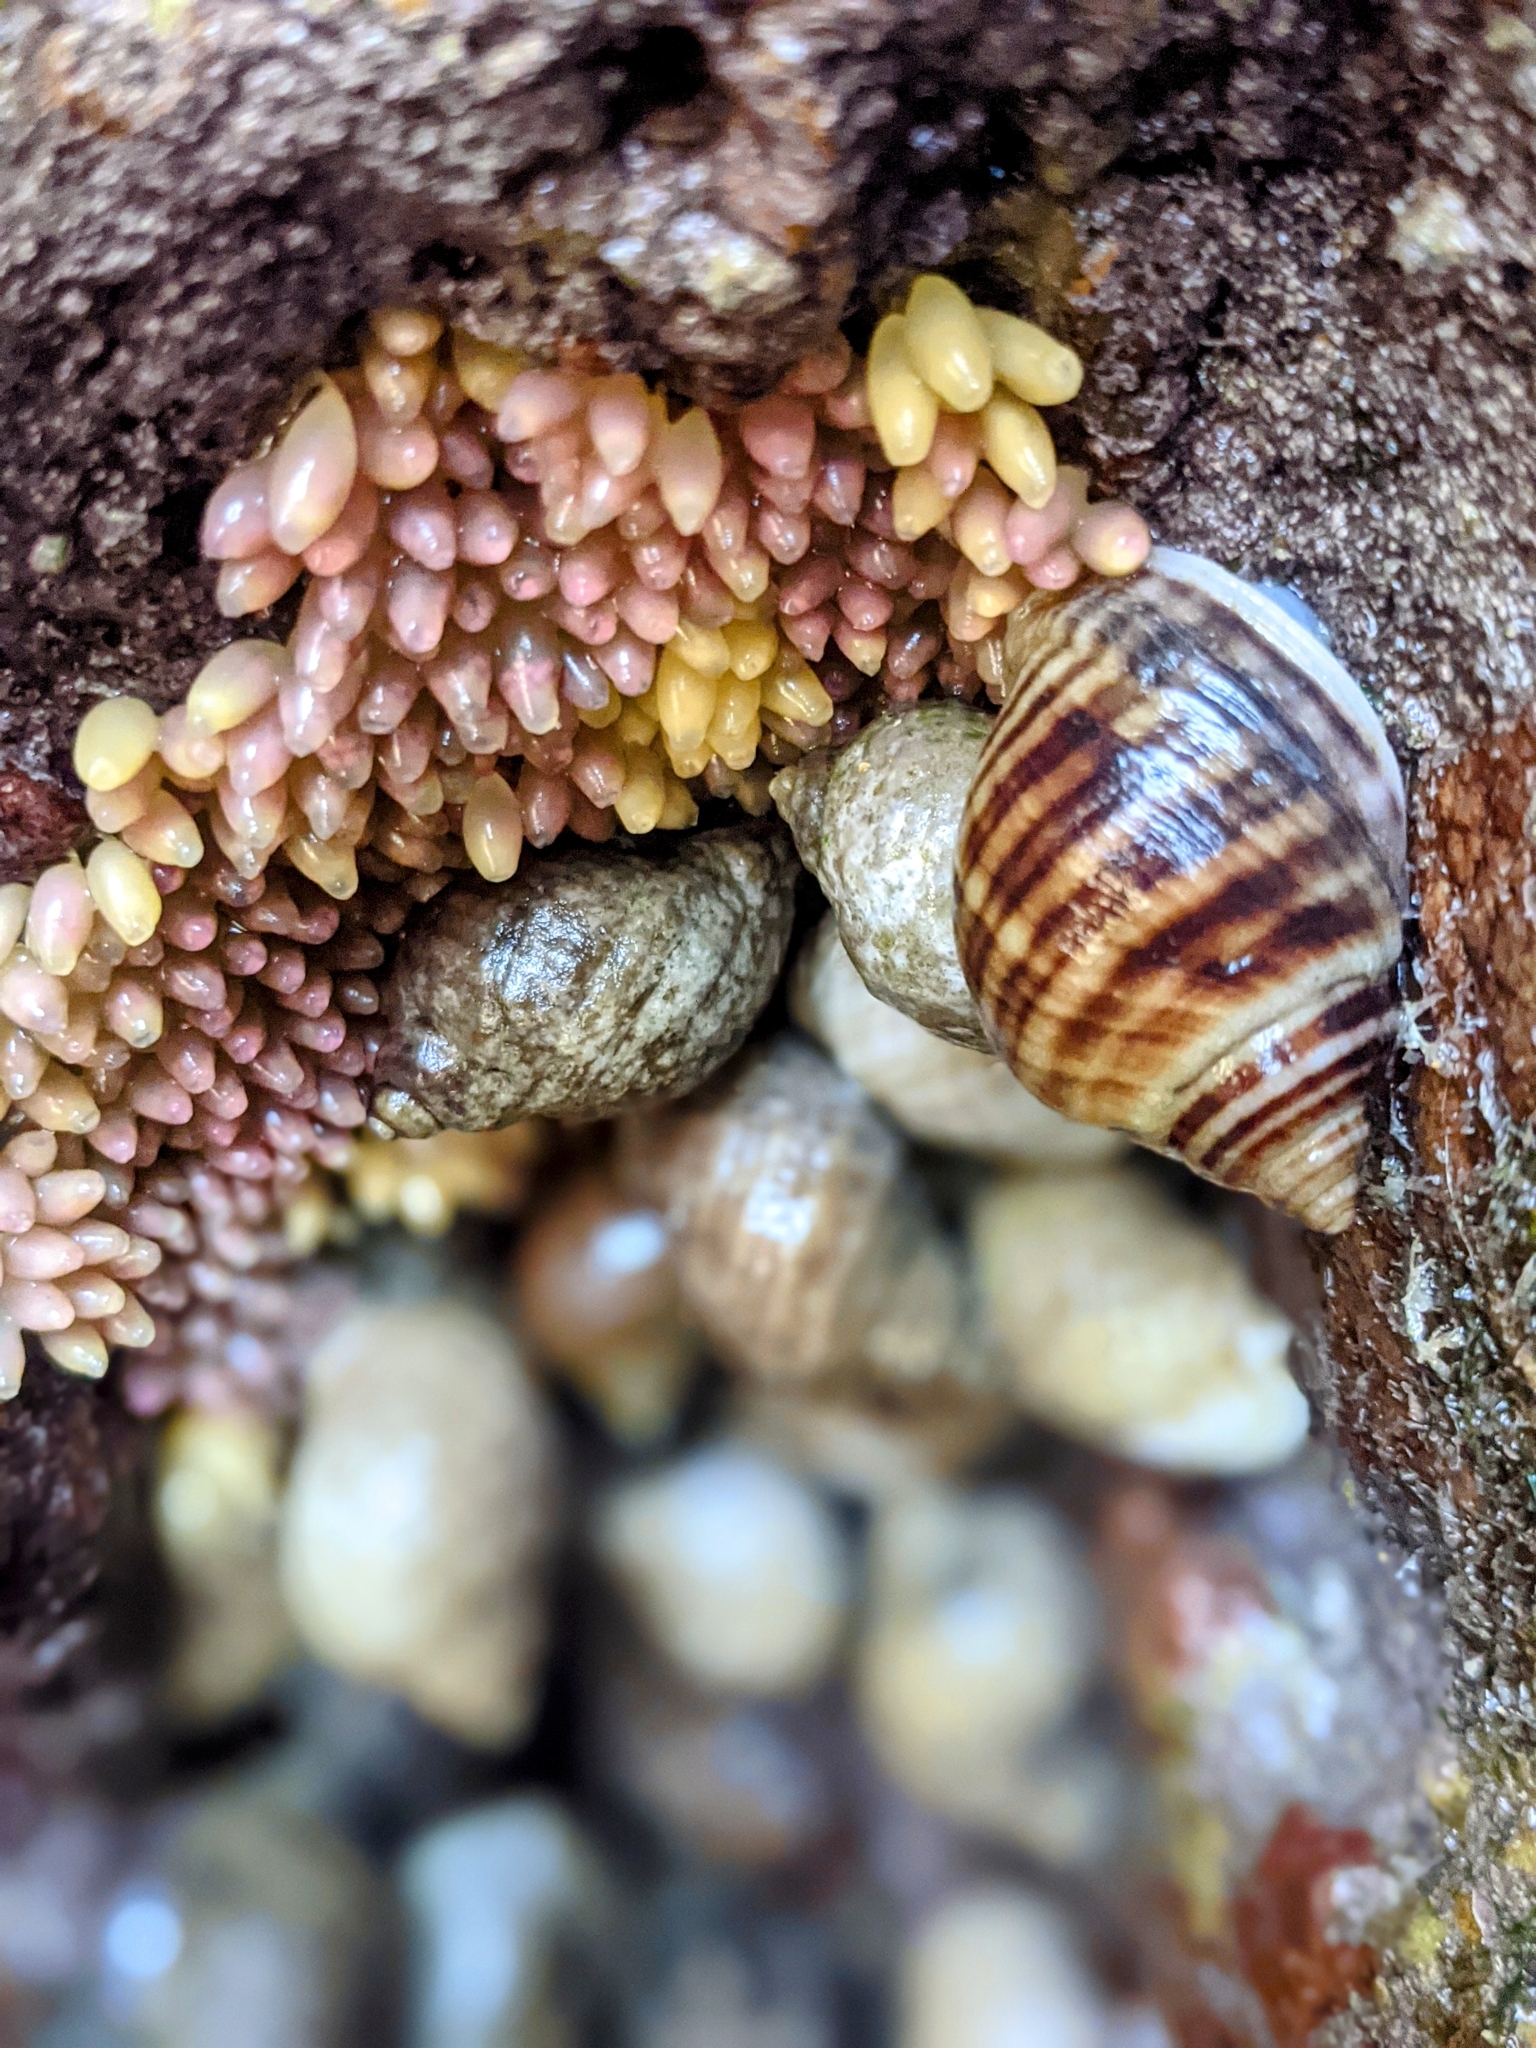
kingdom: Animalia
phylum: Mollusca
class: Gastropoda
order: Neogastropoda
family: Muricidae
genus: Nucella
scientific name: Nucella lapillus
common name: Dog whelk
